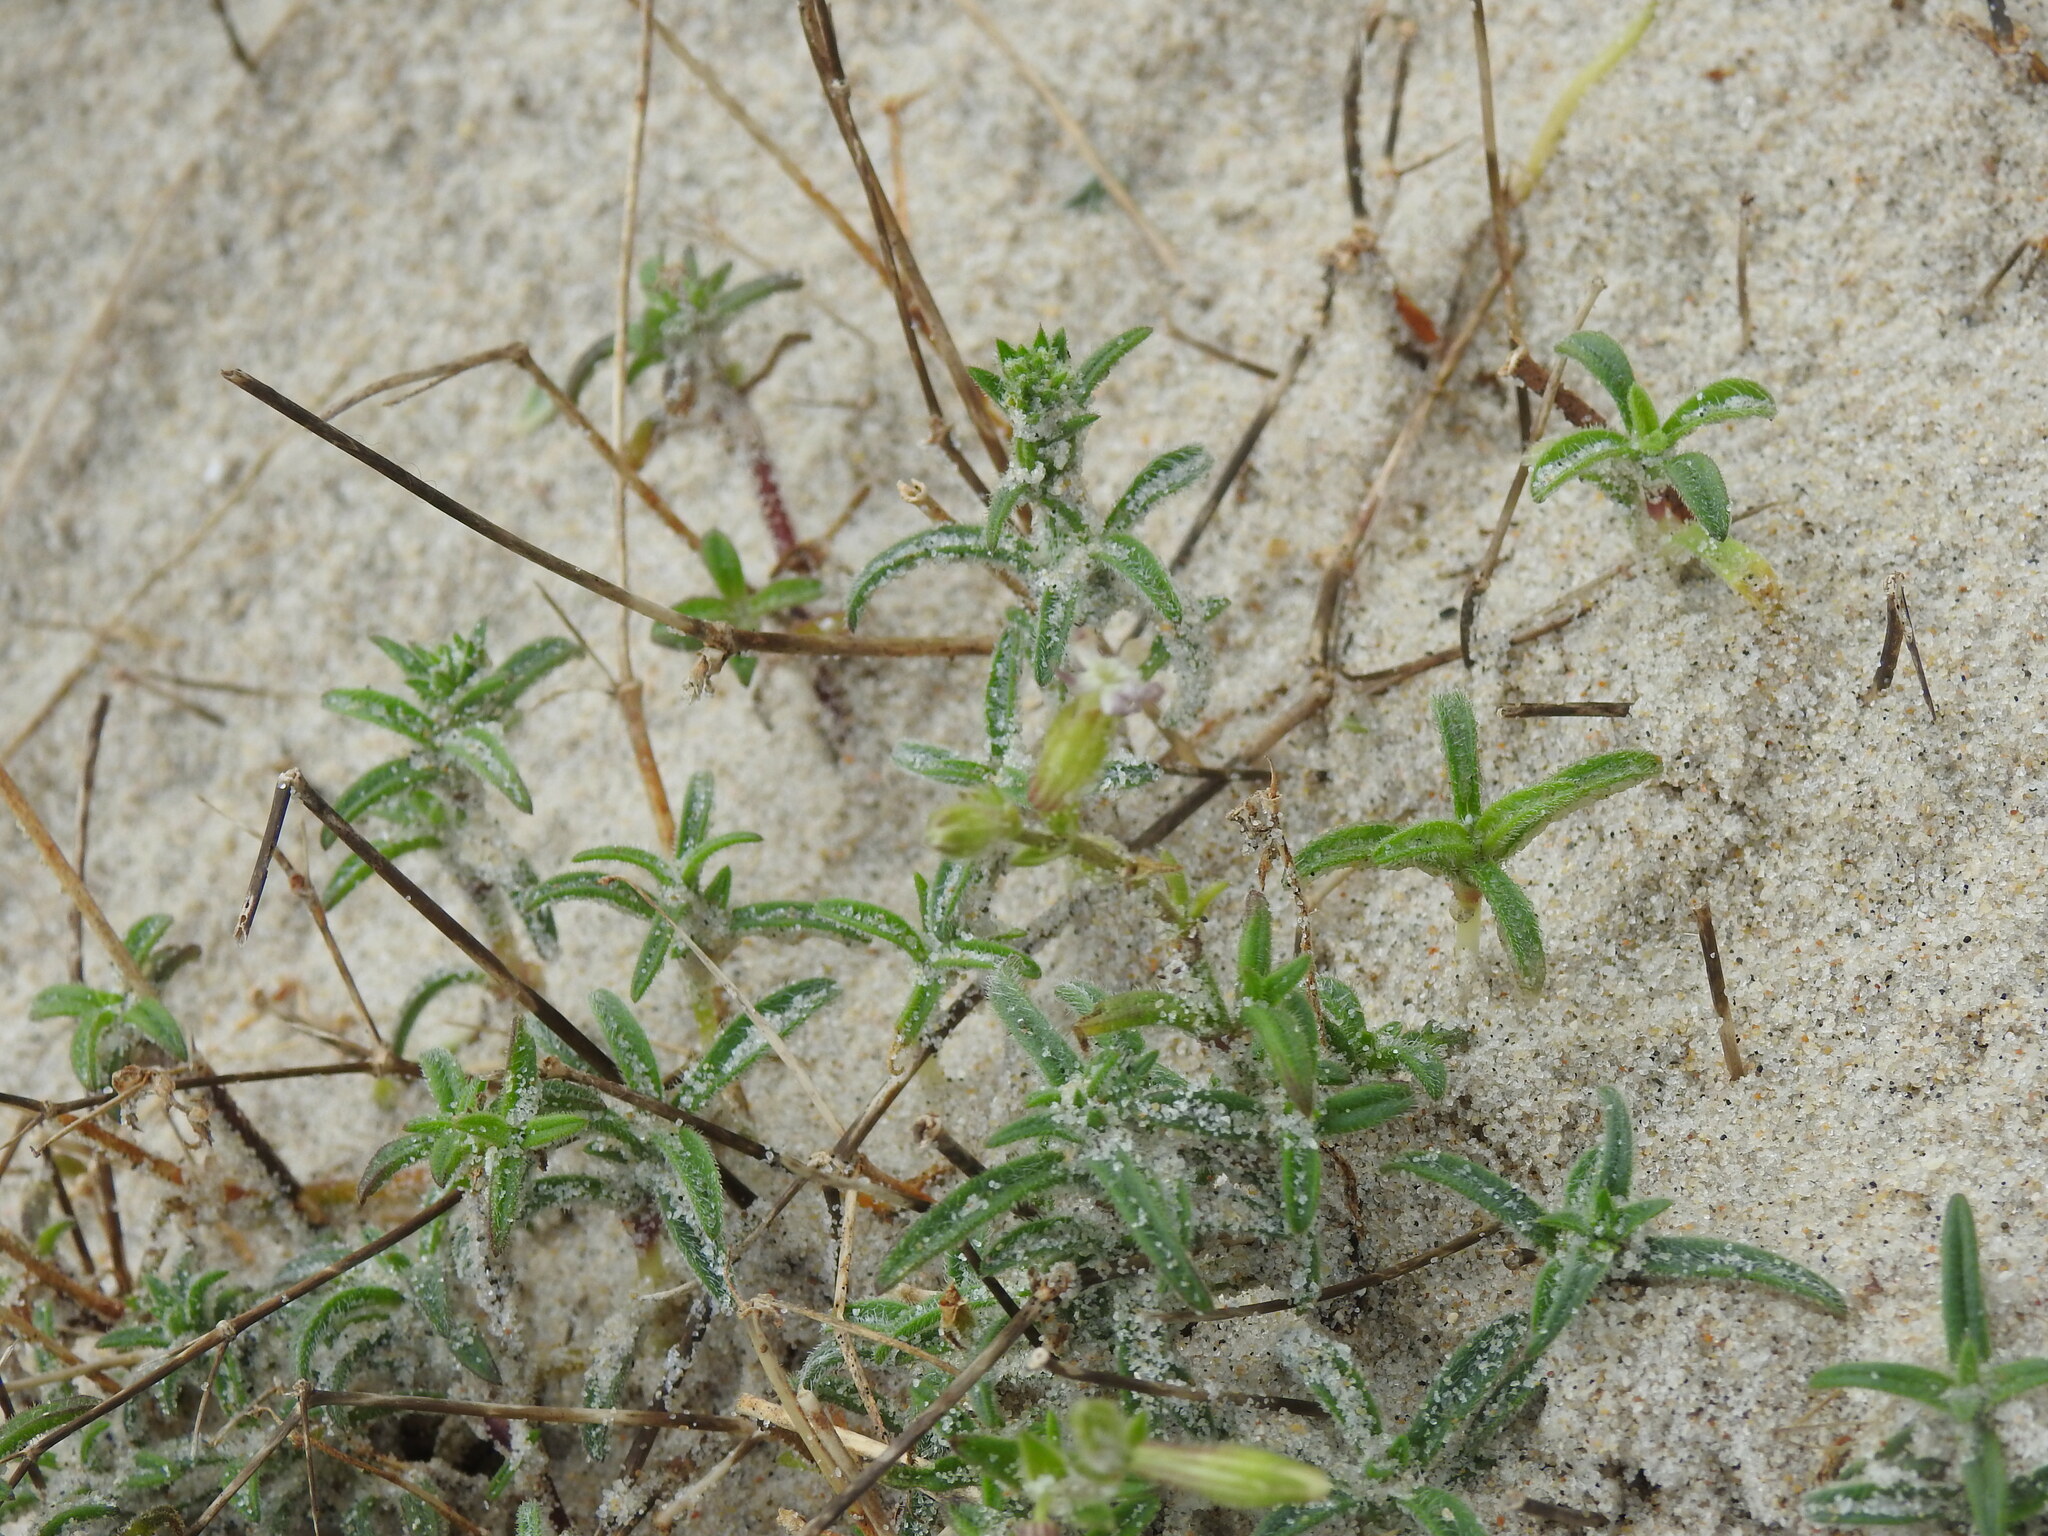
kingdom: Plantae
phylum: Tracheophyta
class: Magnoliopsida
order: Caryophyllales
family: Caryophyllaceae
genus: Silene
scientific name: Silene nicaeensis
